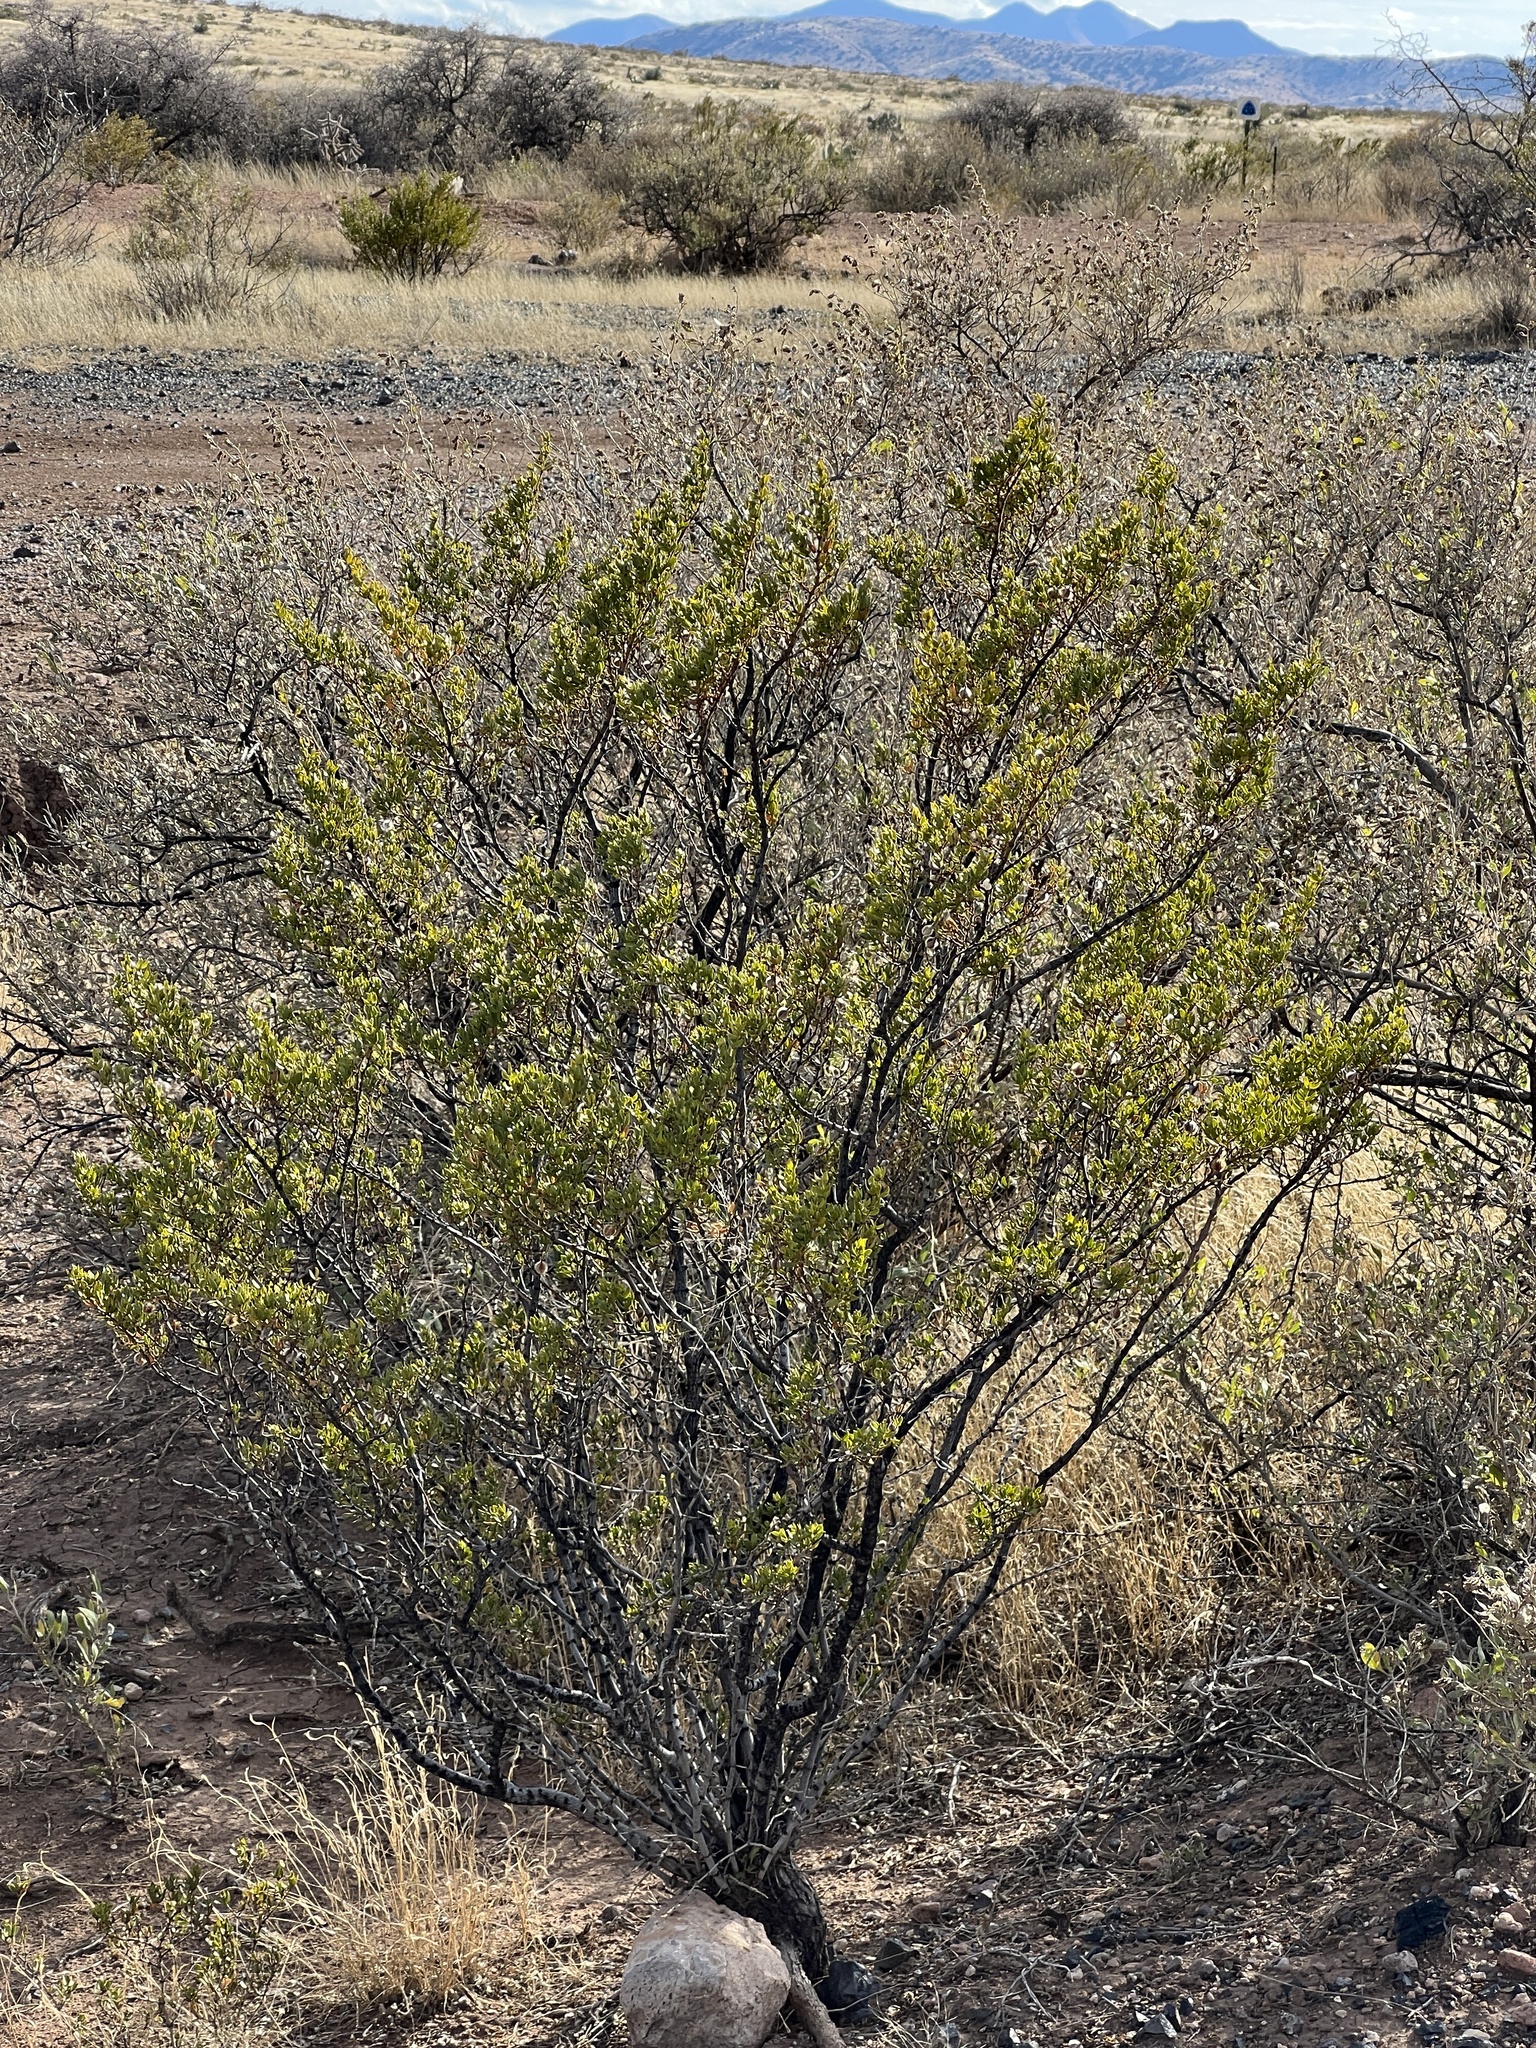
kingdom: Plantae
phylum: Tracheophyta
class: Magnoliopsida
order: Zygophyllales
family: Zygophyllaceae
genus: Larrea
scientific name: Larrea tridentata
